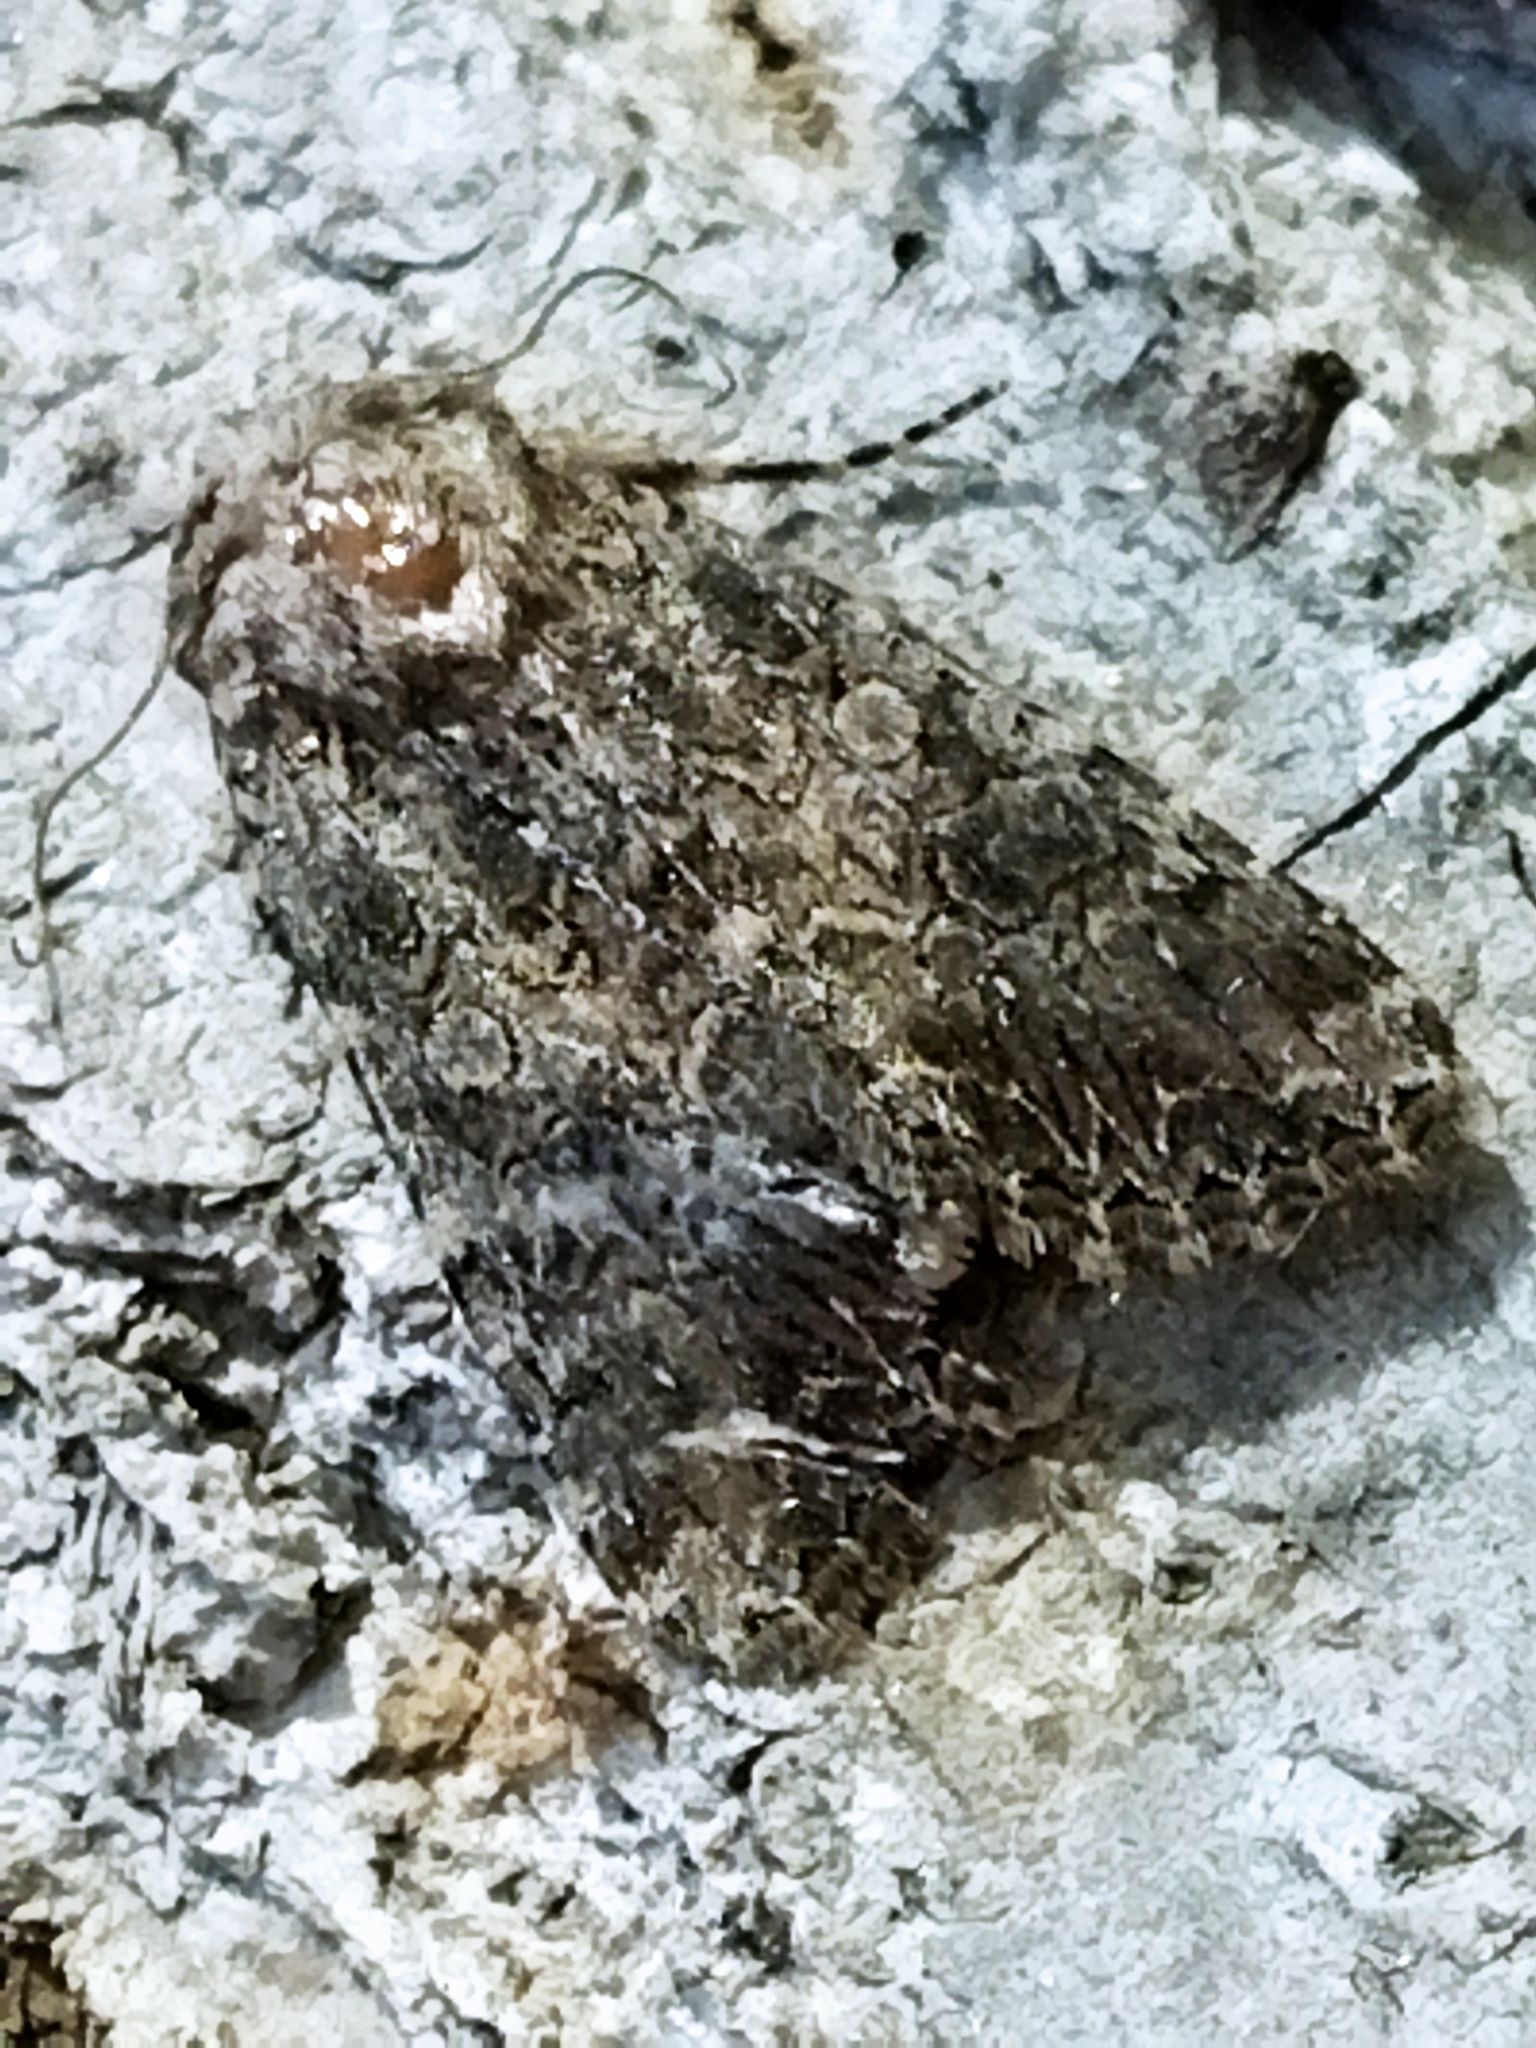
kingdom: Animalia
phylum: Arthropoda
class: Insecta
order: Lepidoptera
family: Noctuidae
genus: Anarta
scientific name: Anarta trifolii
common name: Clover cutworm moth
